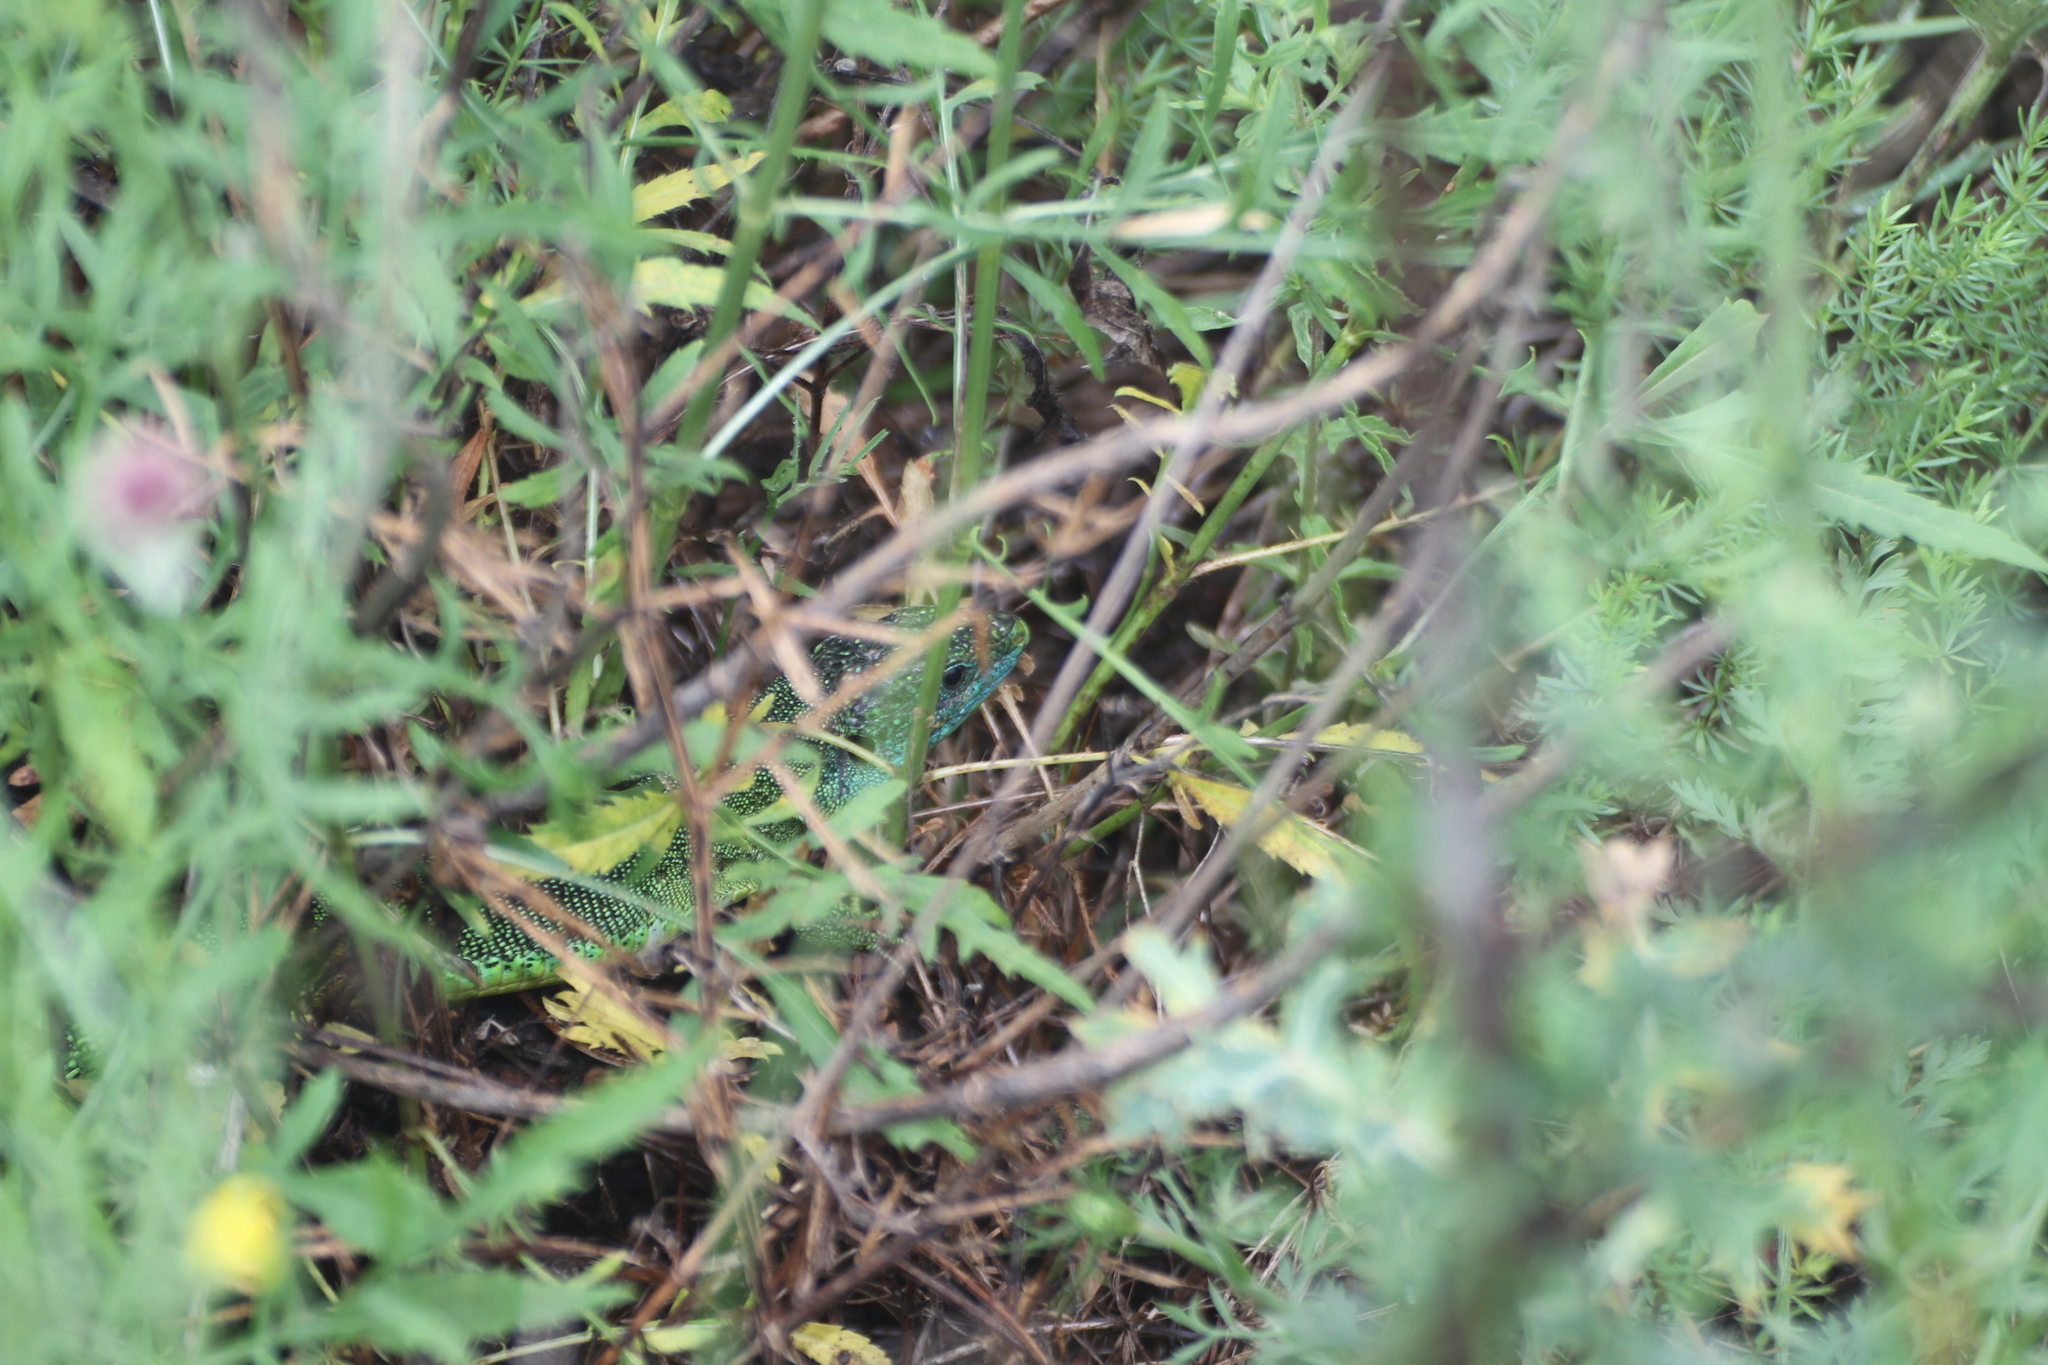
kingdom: Animalia
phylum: Chordata
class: Squamata
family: Lacertidae
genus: Lacerta
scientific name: Lacerta bilineata
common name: Western green lizard
